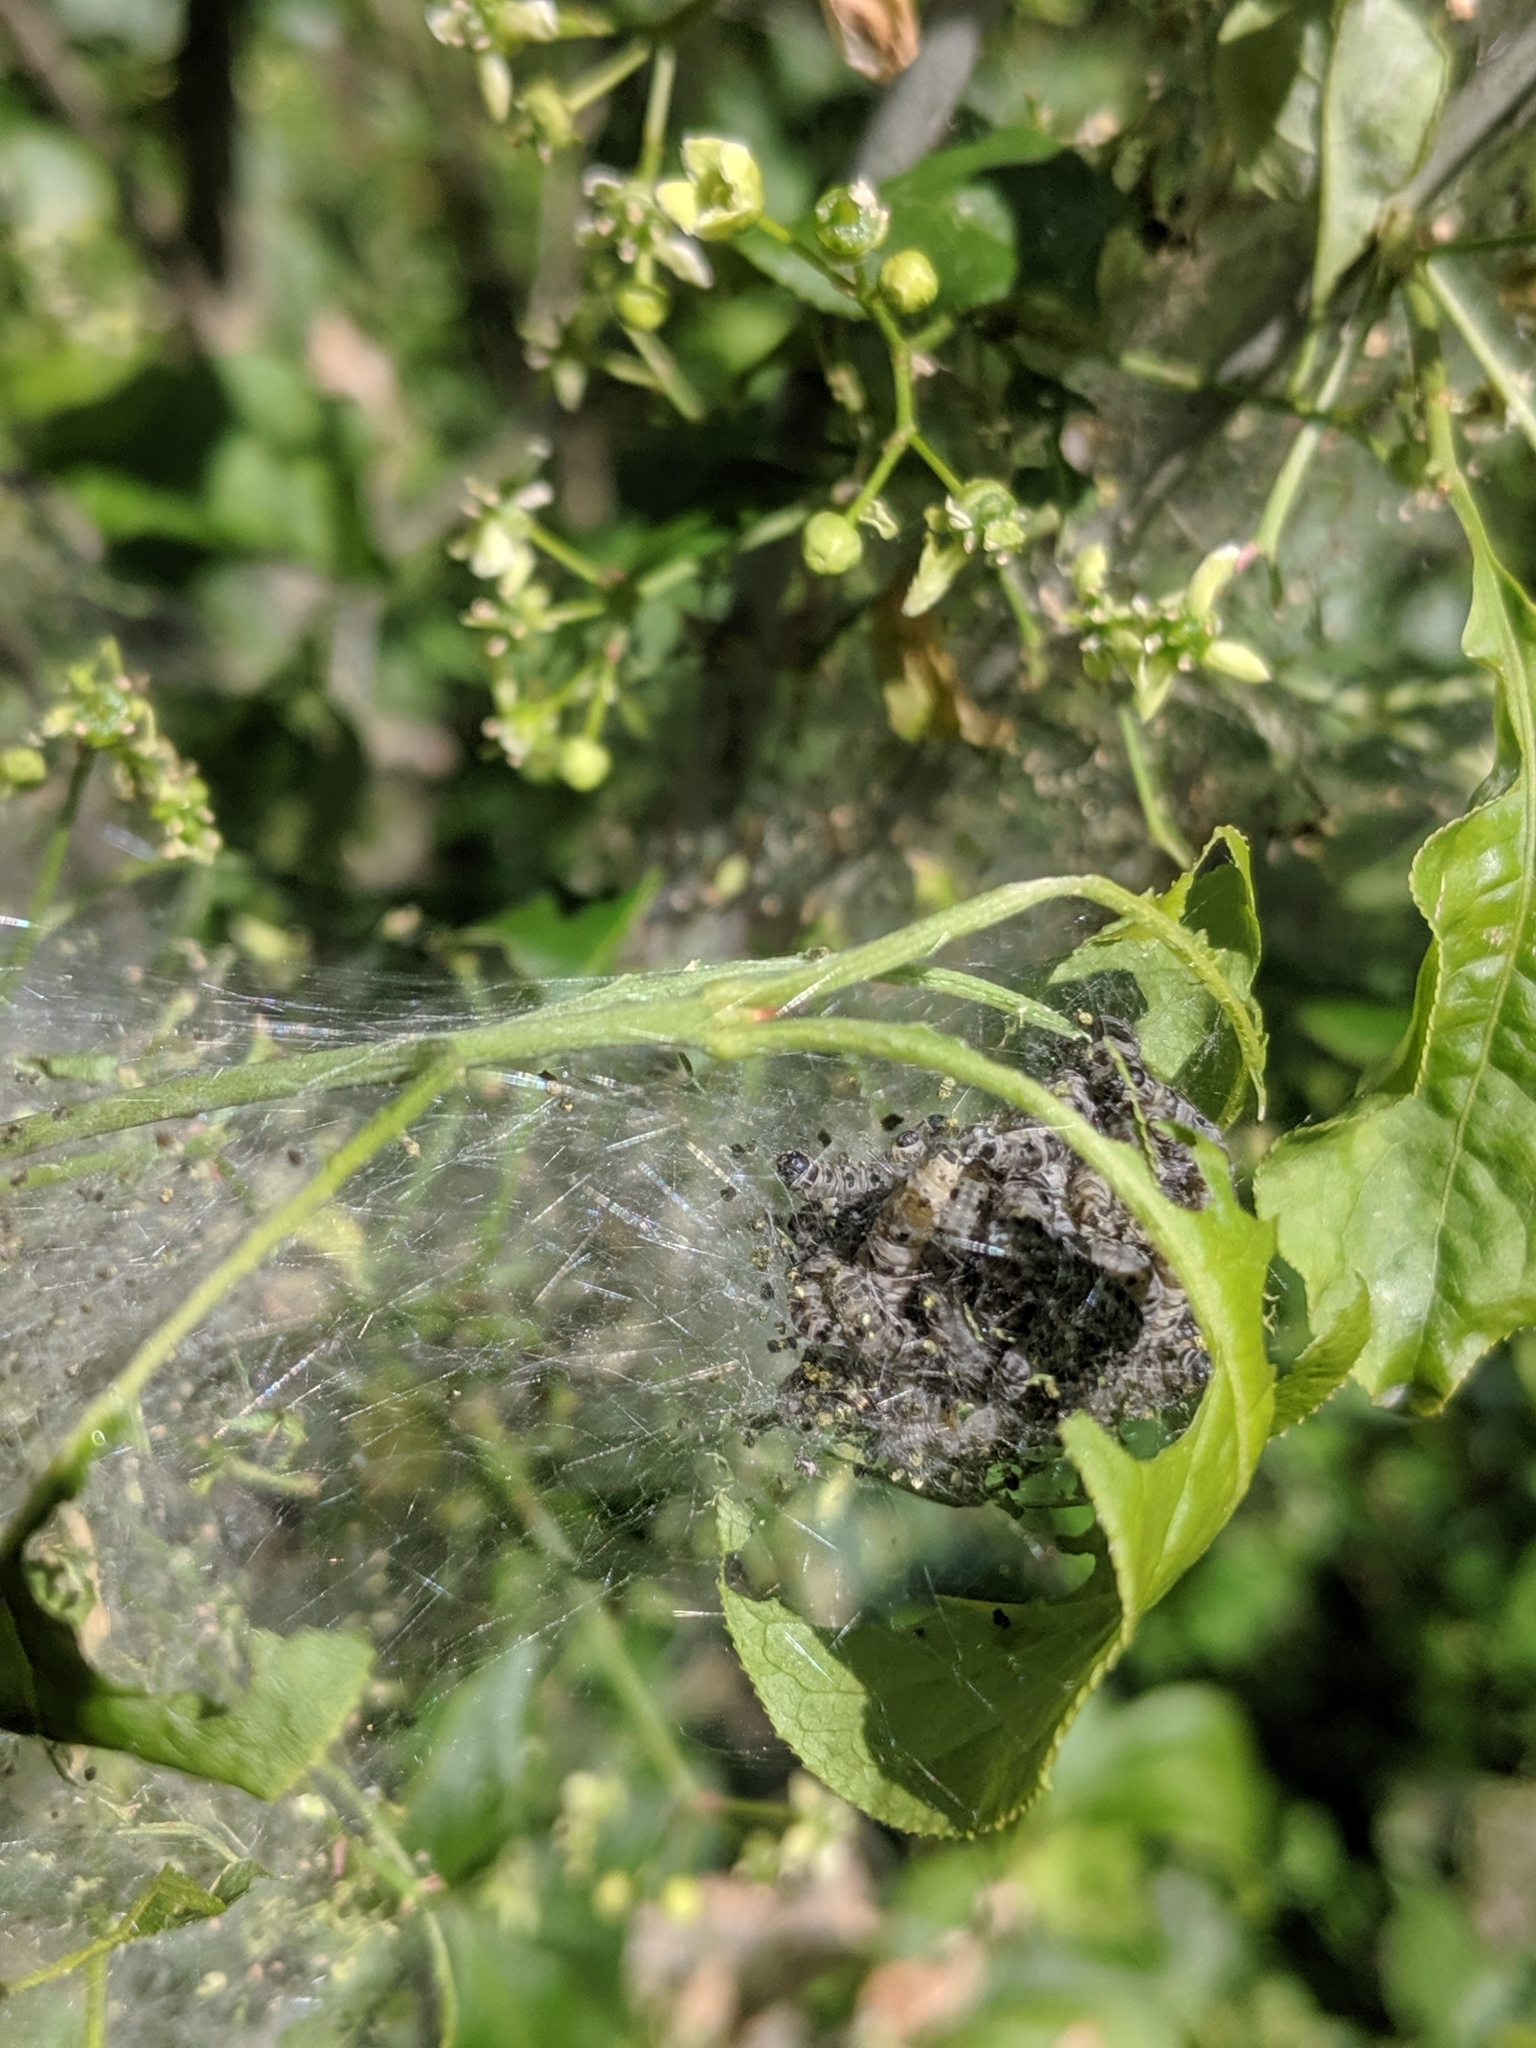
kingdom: Animalia
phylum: Arthropoda
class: Insecta
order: Lepidoptera
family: Crambidae
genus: Cydalima
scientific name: Cydalima perspectalis
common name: Box tree moth
